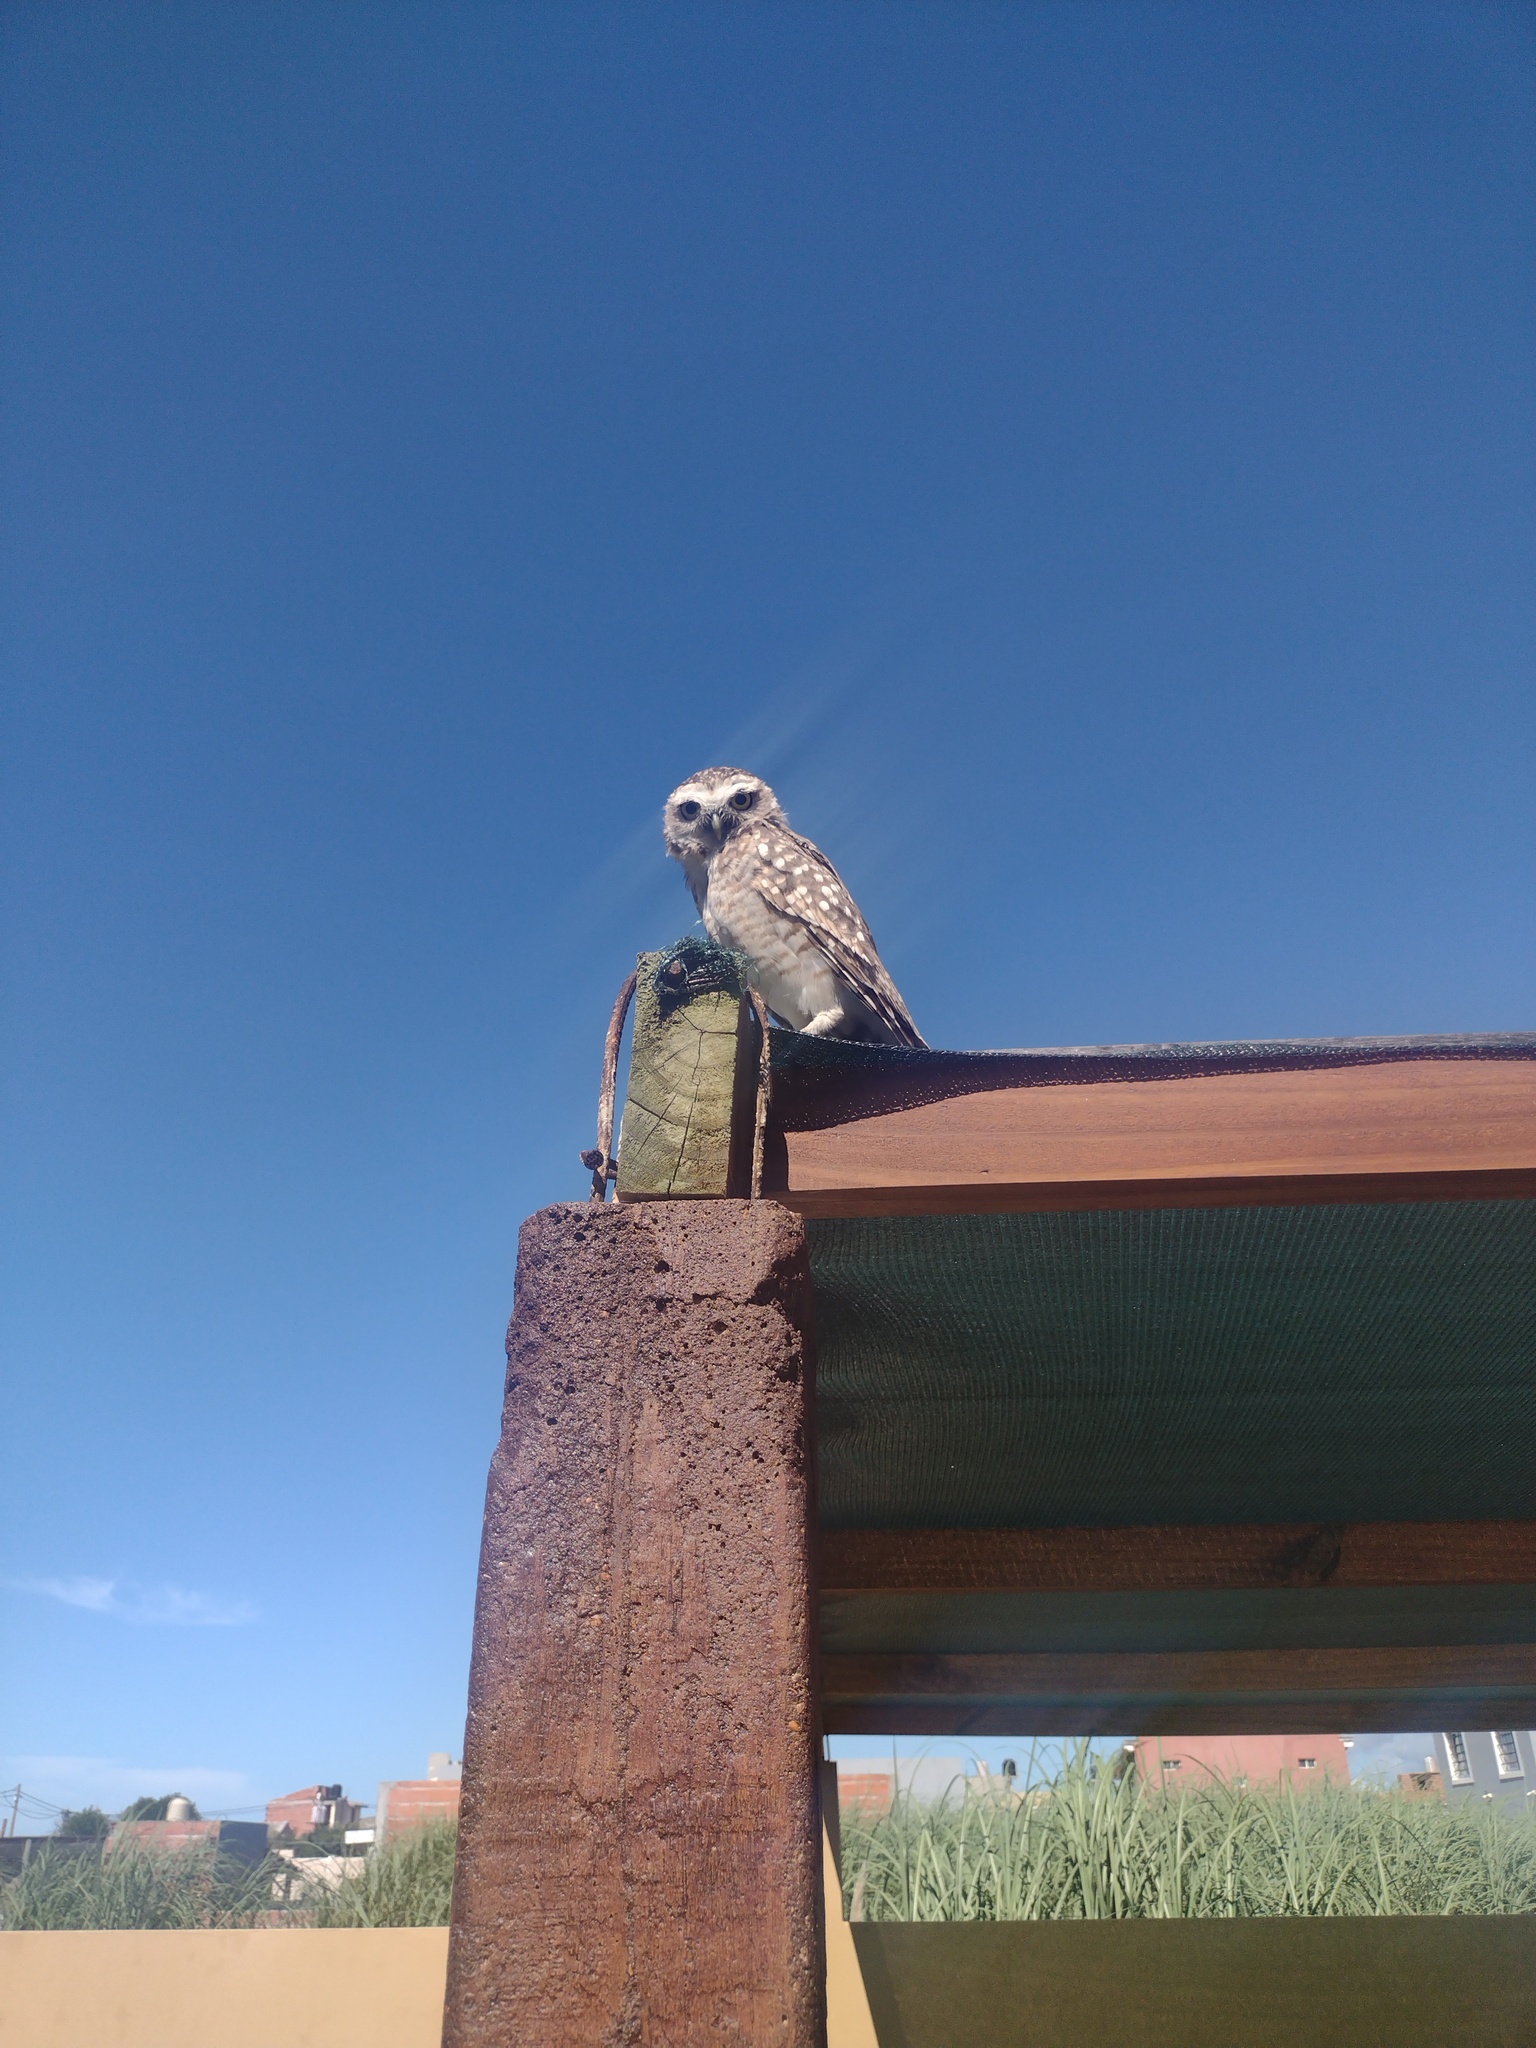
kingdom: Animalia
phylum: Chordata
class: Aves
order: Strigiformes
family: Strigidae
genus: Athene
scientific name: Athene cunicularia
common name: Burrowing owl
